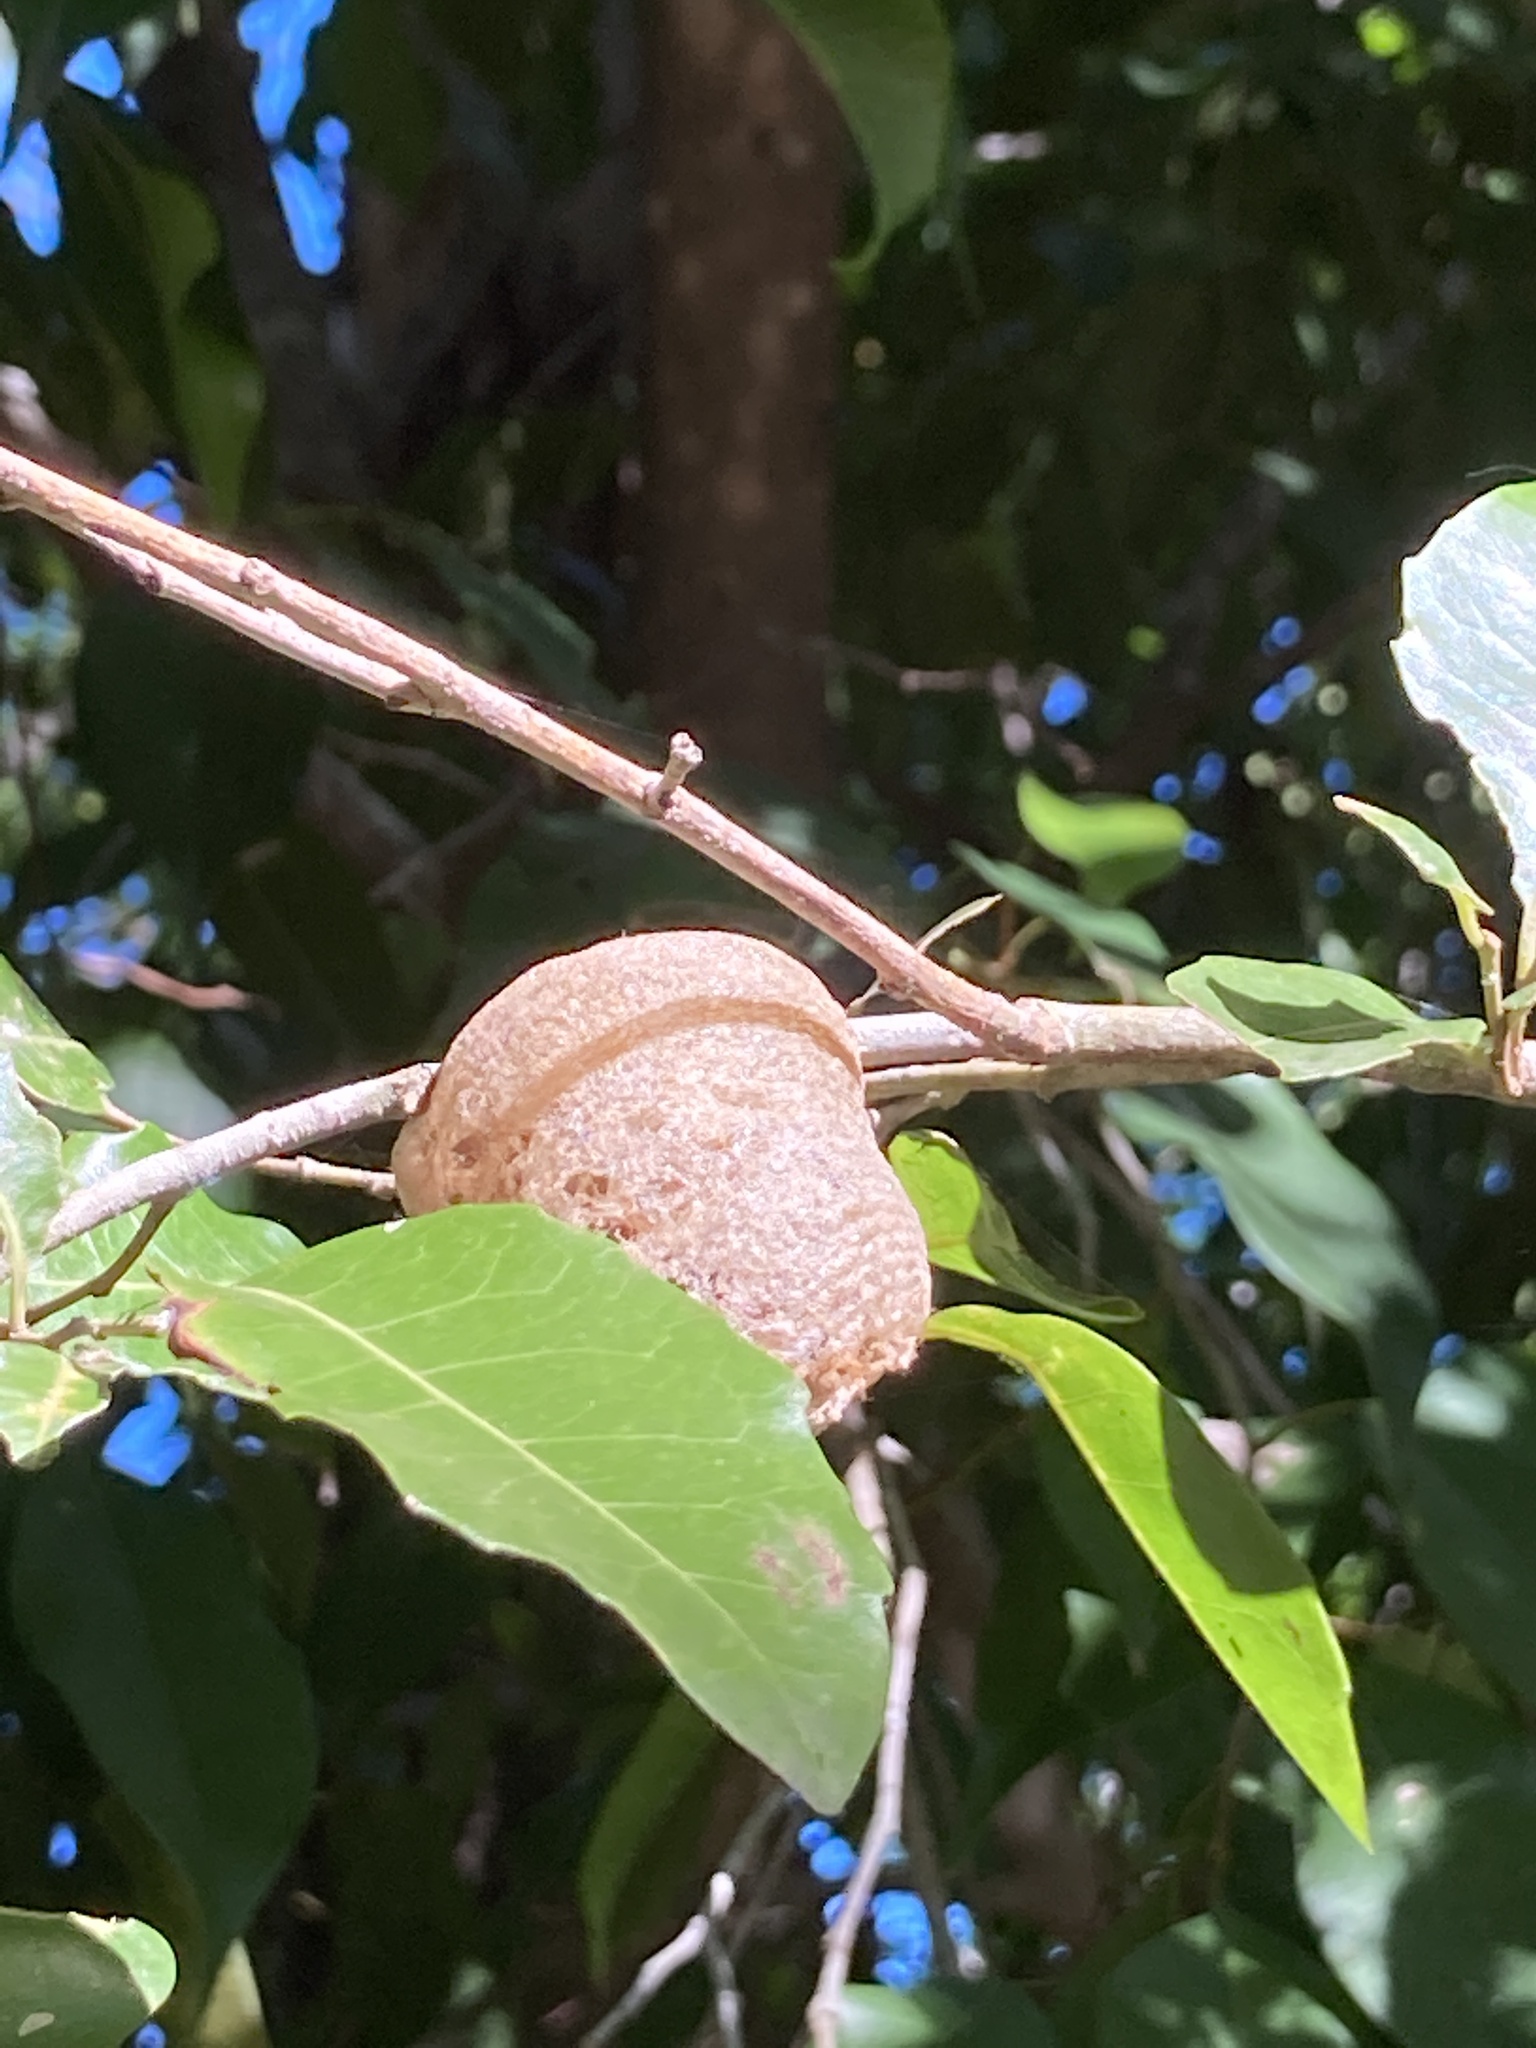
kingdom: Animalia
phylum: Arthropoda
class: Insecta
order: Mantodea
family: Mantidae
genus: Archimantis
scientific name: Archimantis latistyla
